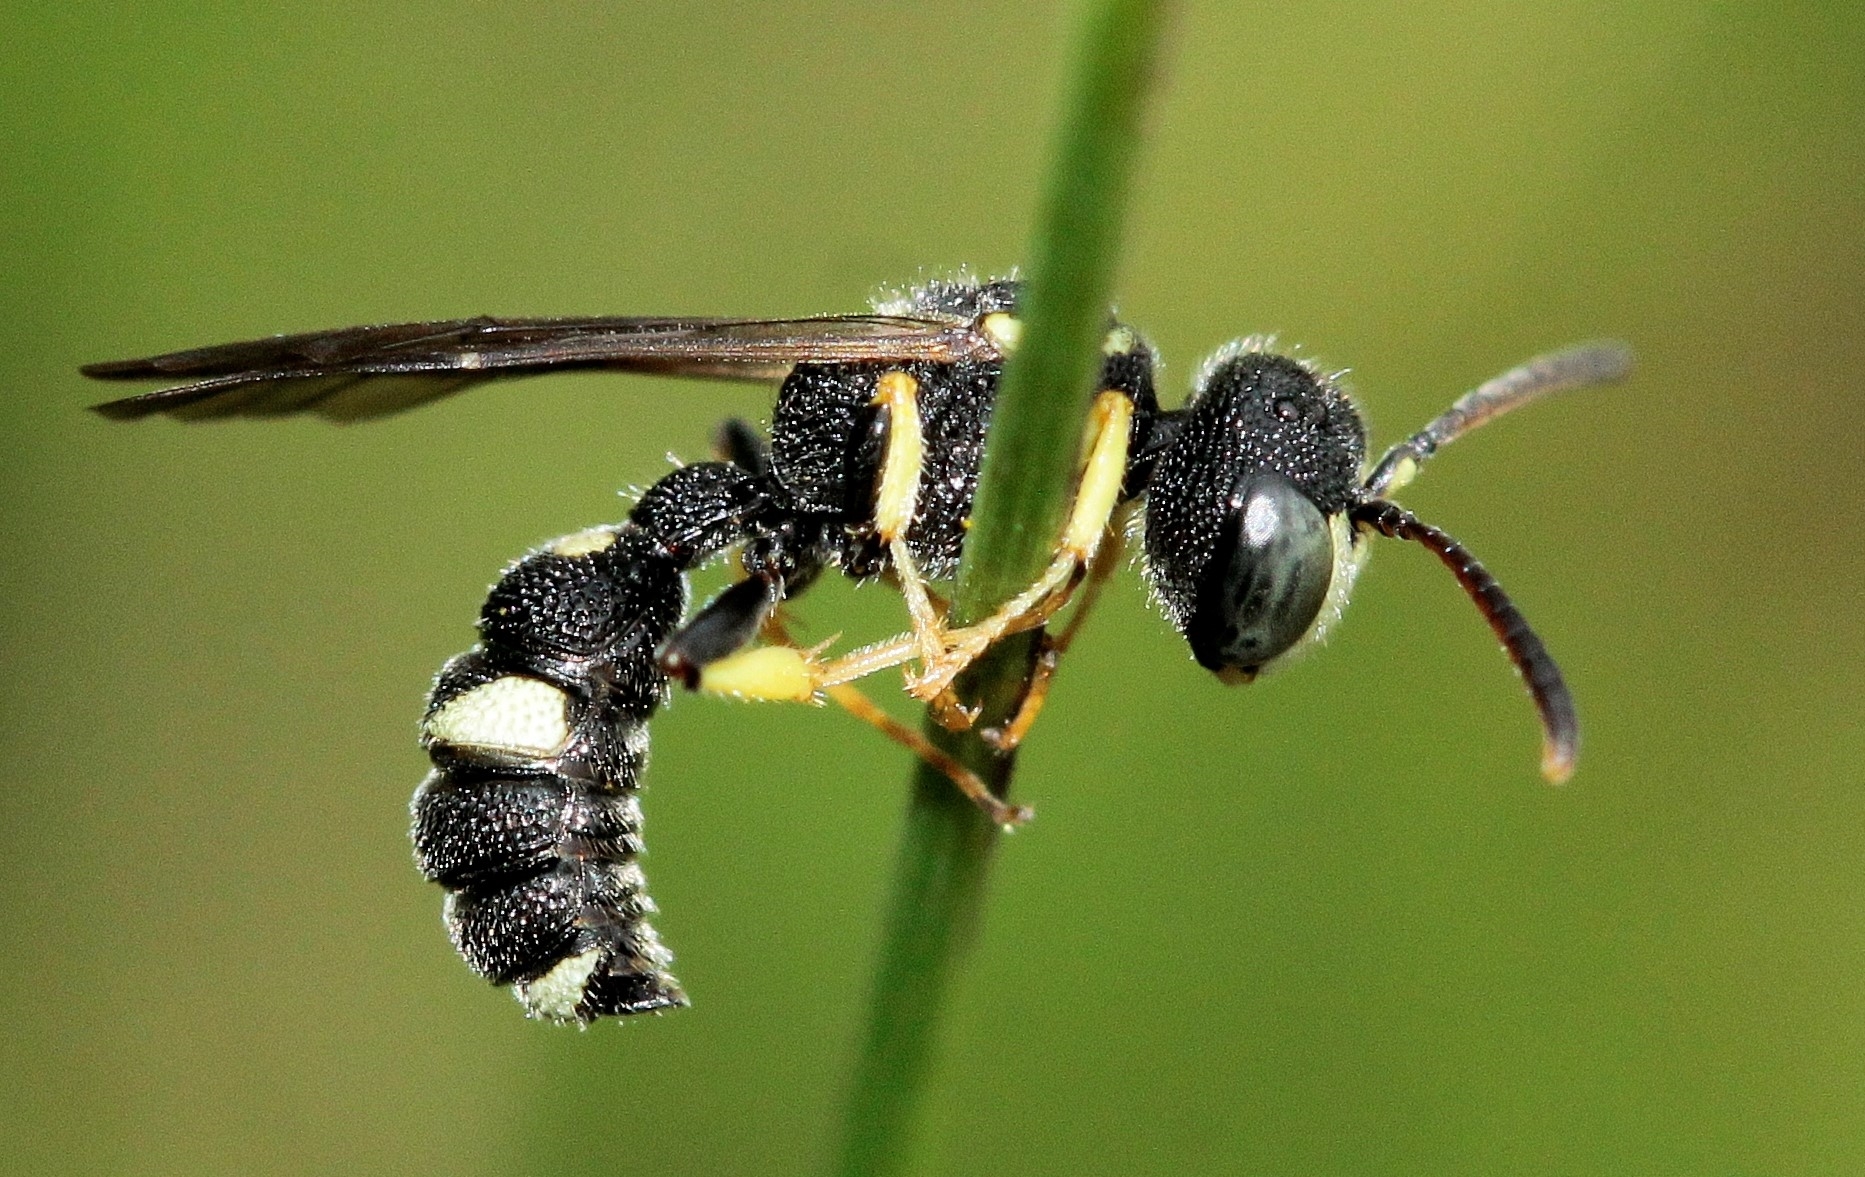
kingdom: Animalia
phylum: Arthropoda
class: Insecta
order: Hymenoptera
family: Crabronidae
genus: Cerceris
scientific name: Cerceris rybyensis
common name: Ornate tailed digger wasp
